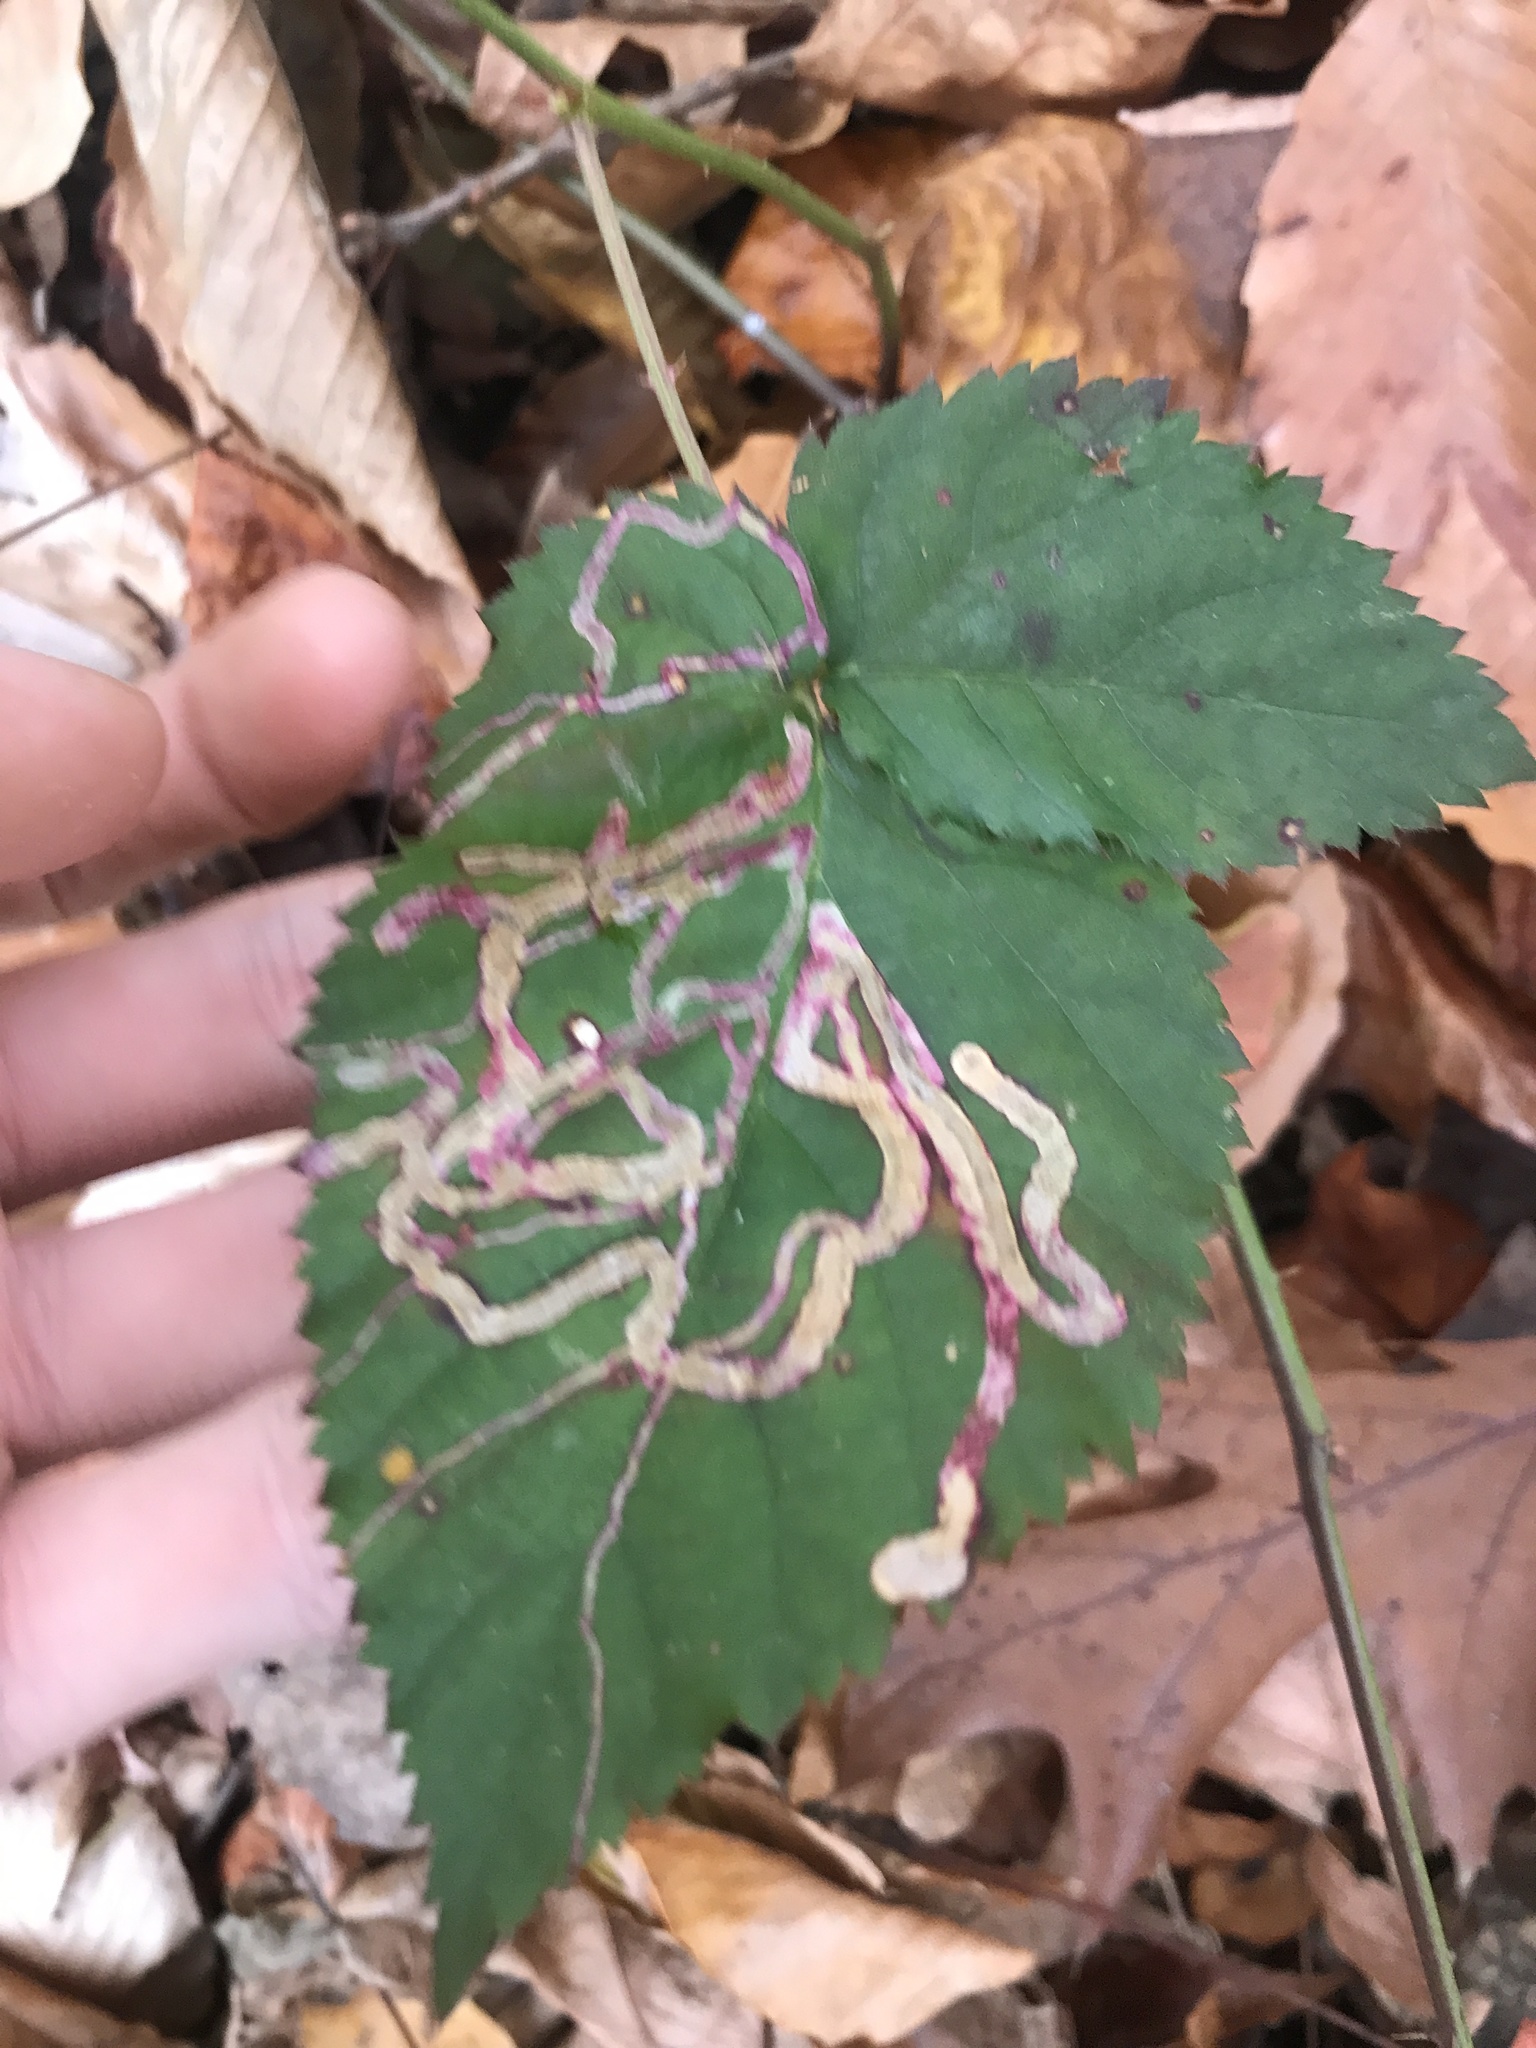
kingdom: Animalia
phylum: Arthropoda
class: Insecta
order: Diptera
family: Agromyzidae
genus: Agromyza
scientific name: Agromyza vockerothi
